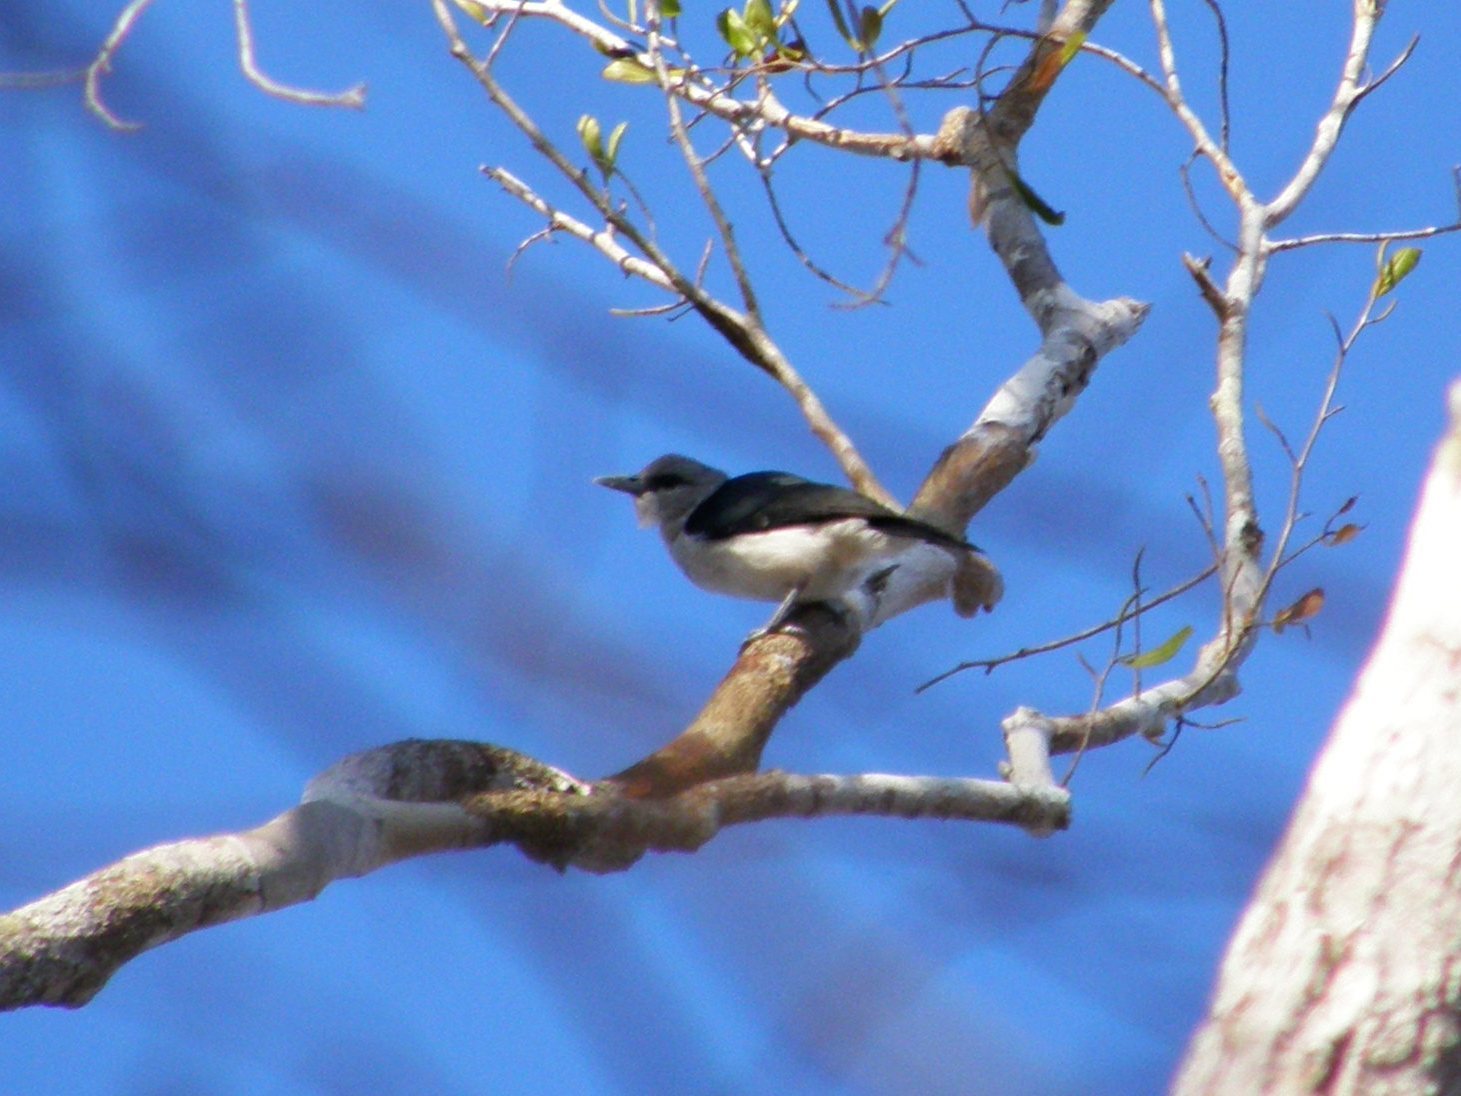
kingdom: Animalia
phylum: Chordata
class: Aves
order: Passeriformes
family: Vangidae
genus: Artamella
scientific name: Artamella viridis
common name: White-headed vanga
